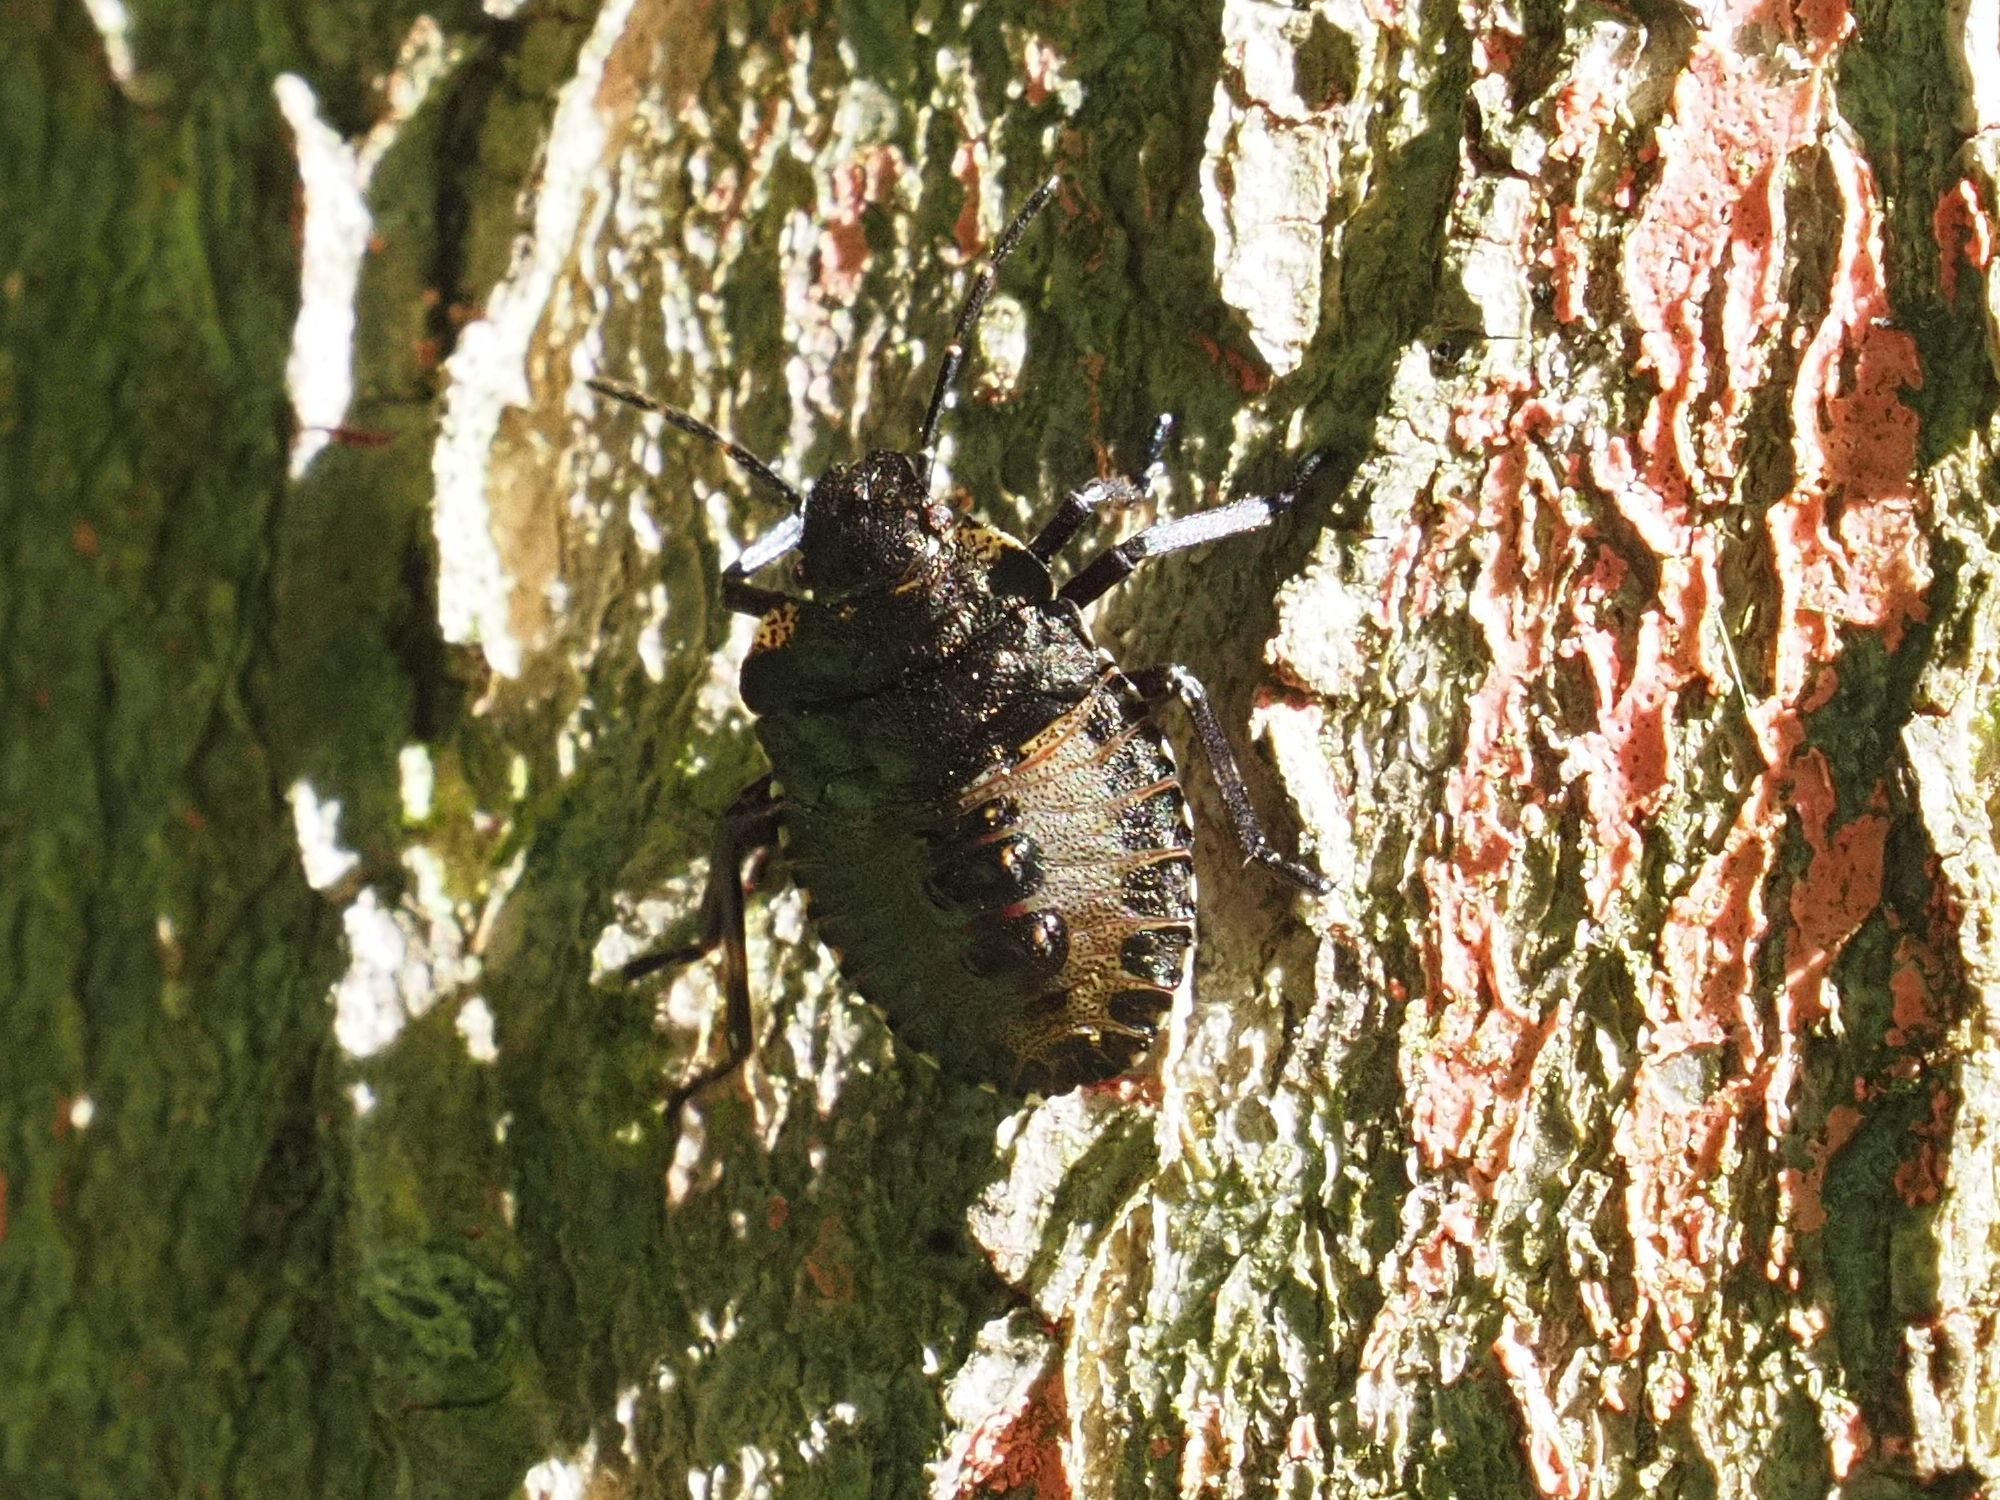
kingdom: Animalia
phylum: Arthropoda
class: Insecta
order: Hemiptera
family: Pentatomidae
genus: Pentatoma
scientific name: Pentatoma rufipes
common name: Forest bug
